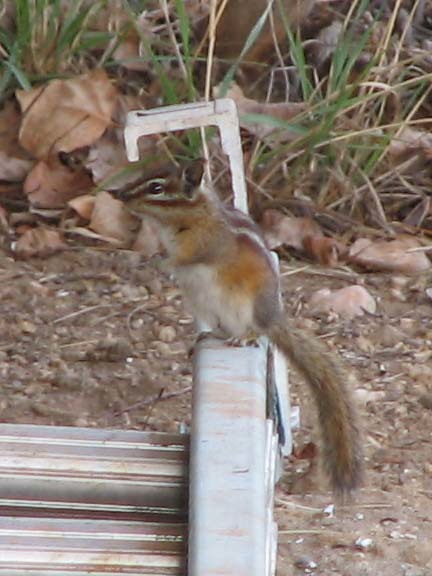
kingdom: Animalia
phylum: Chordata
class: Mammalia
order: Rodentia
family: Sciuridae
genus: Tamias
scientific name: Tamias minimus
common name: Least chipmunk
